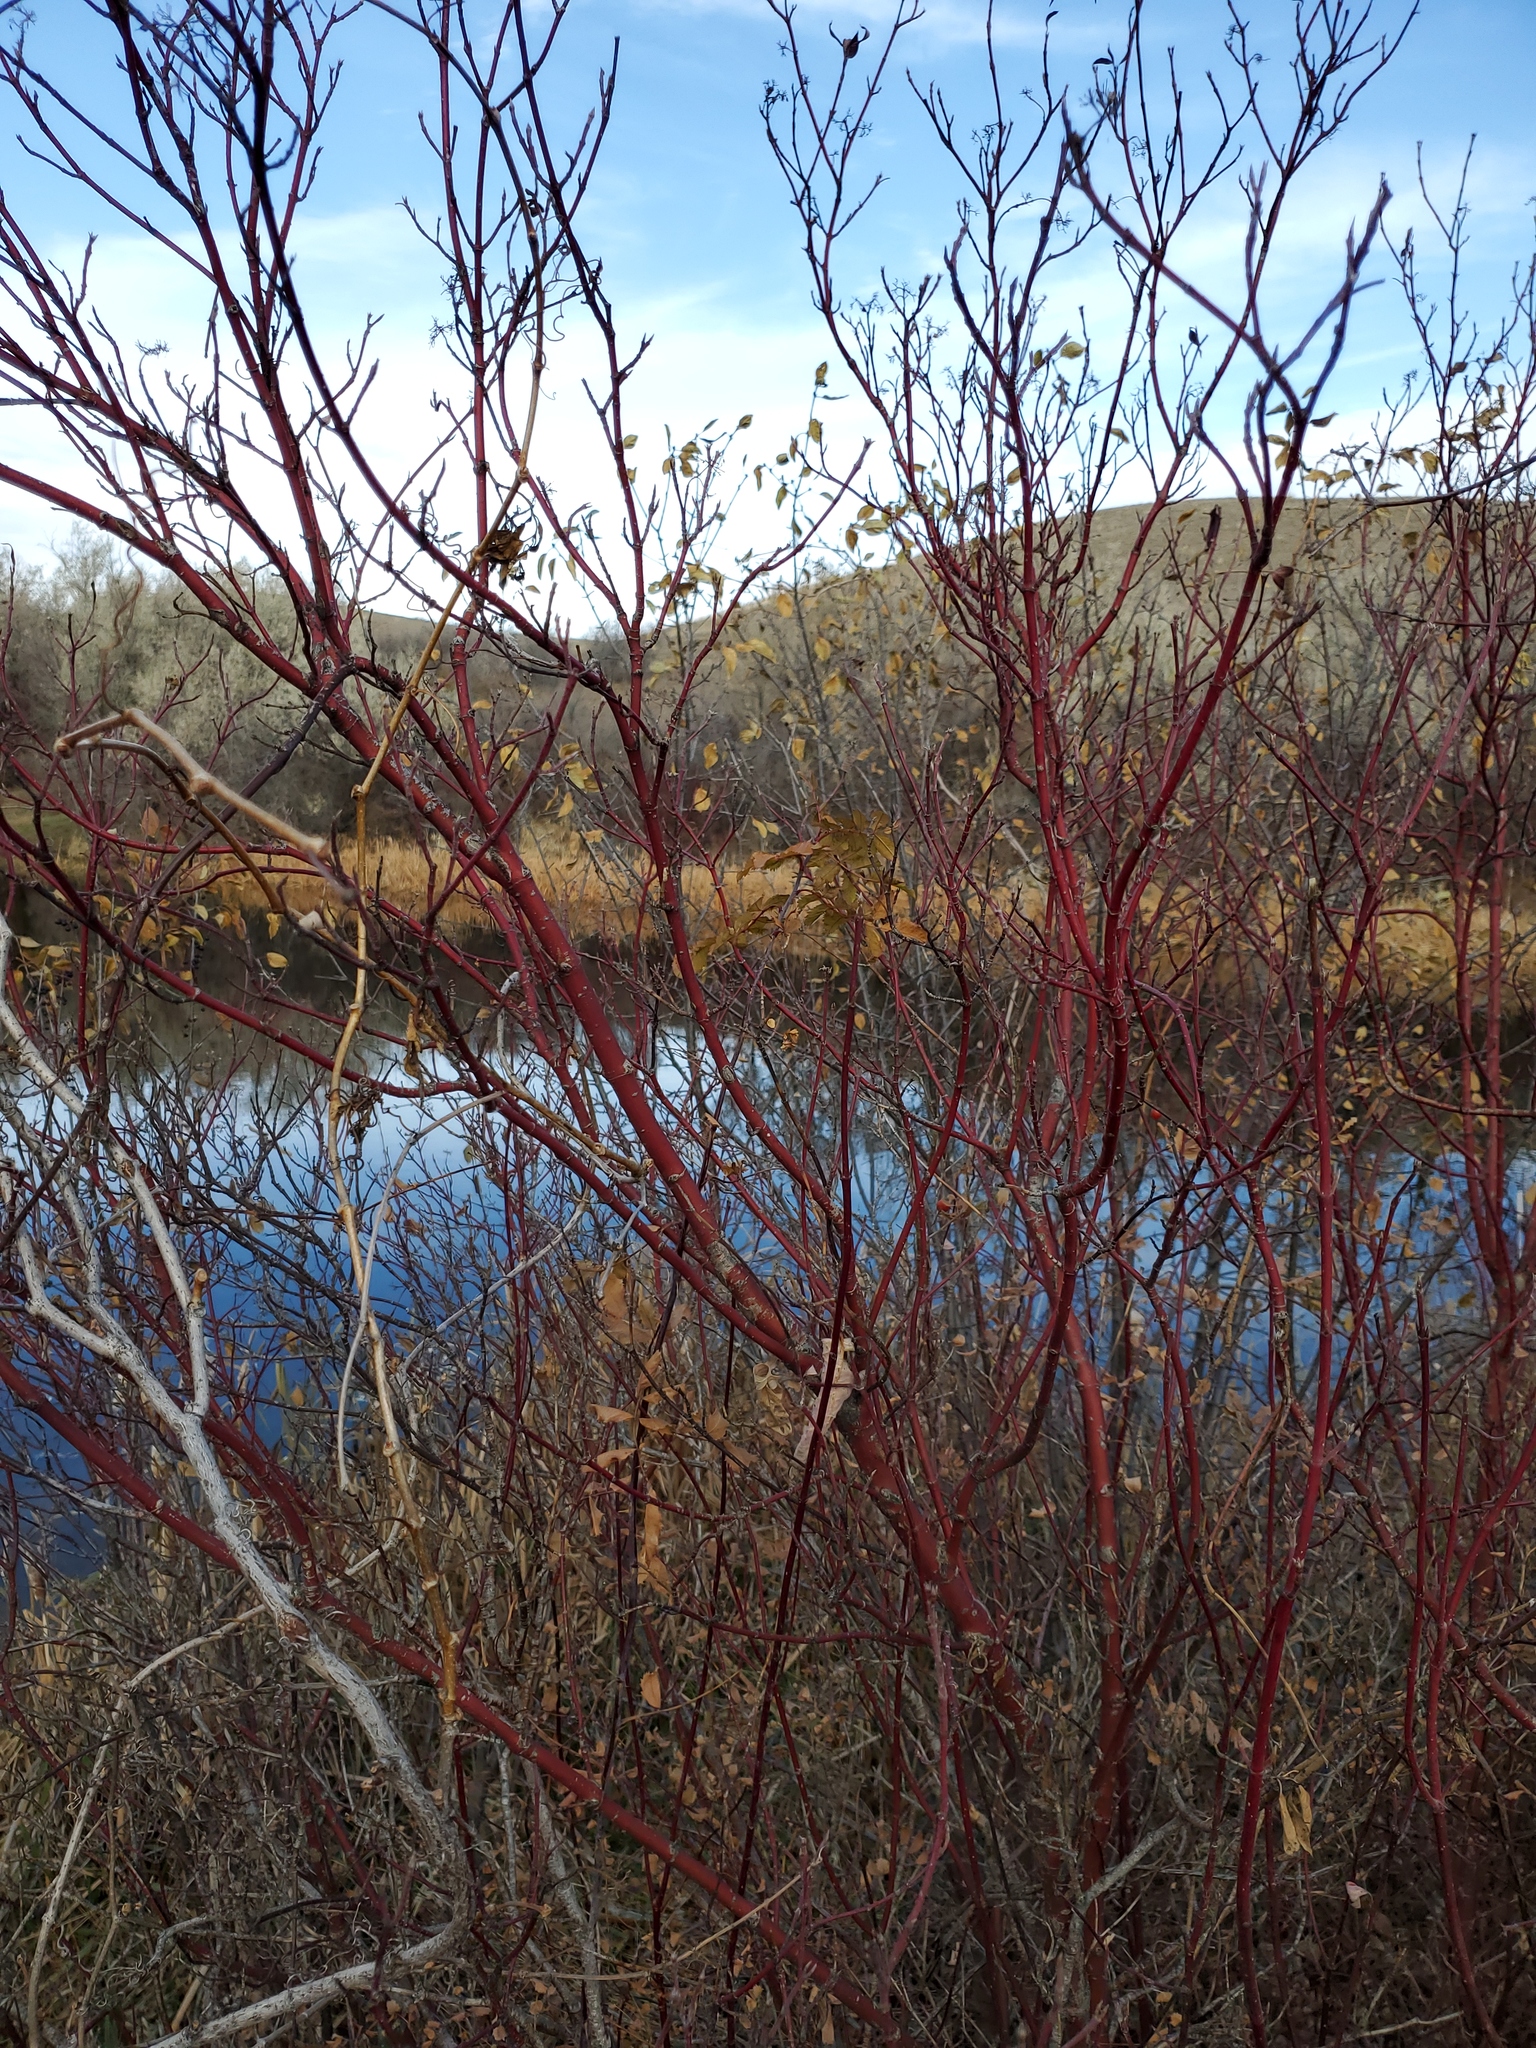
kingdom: Plantae
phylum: Tracheophyta
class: Magnoliopsida
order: Cornales
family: Cornaceae
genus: Cornus
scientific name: Cornus sericea
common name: Red-osier dogwood
